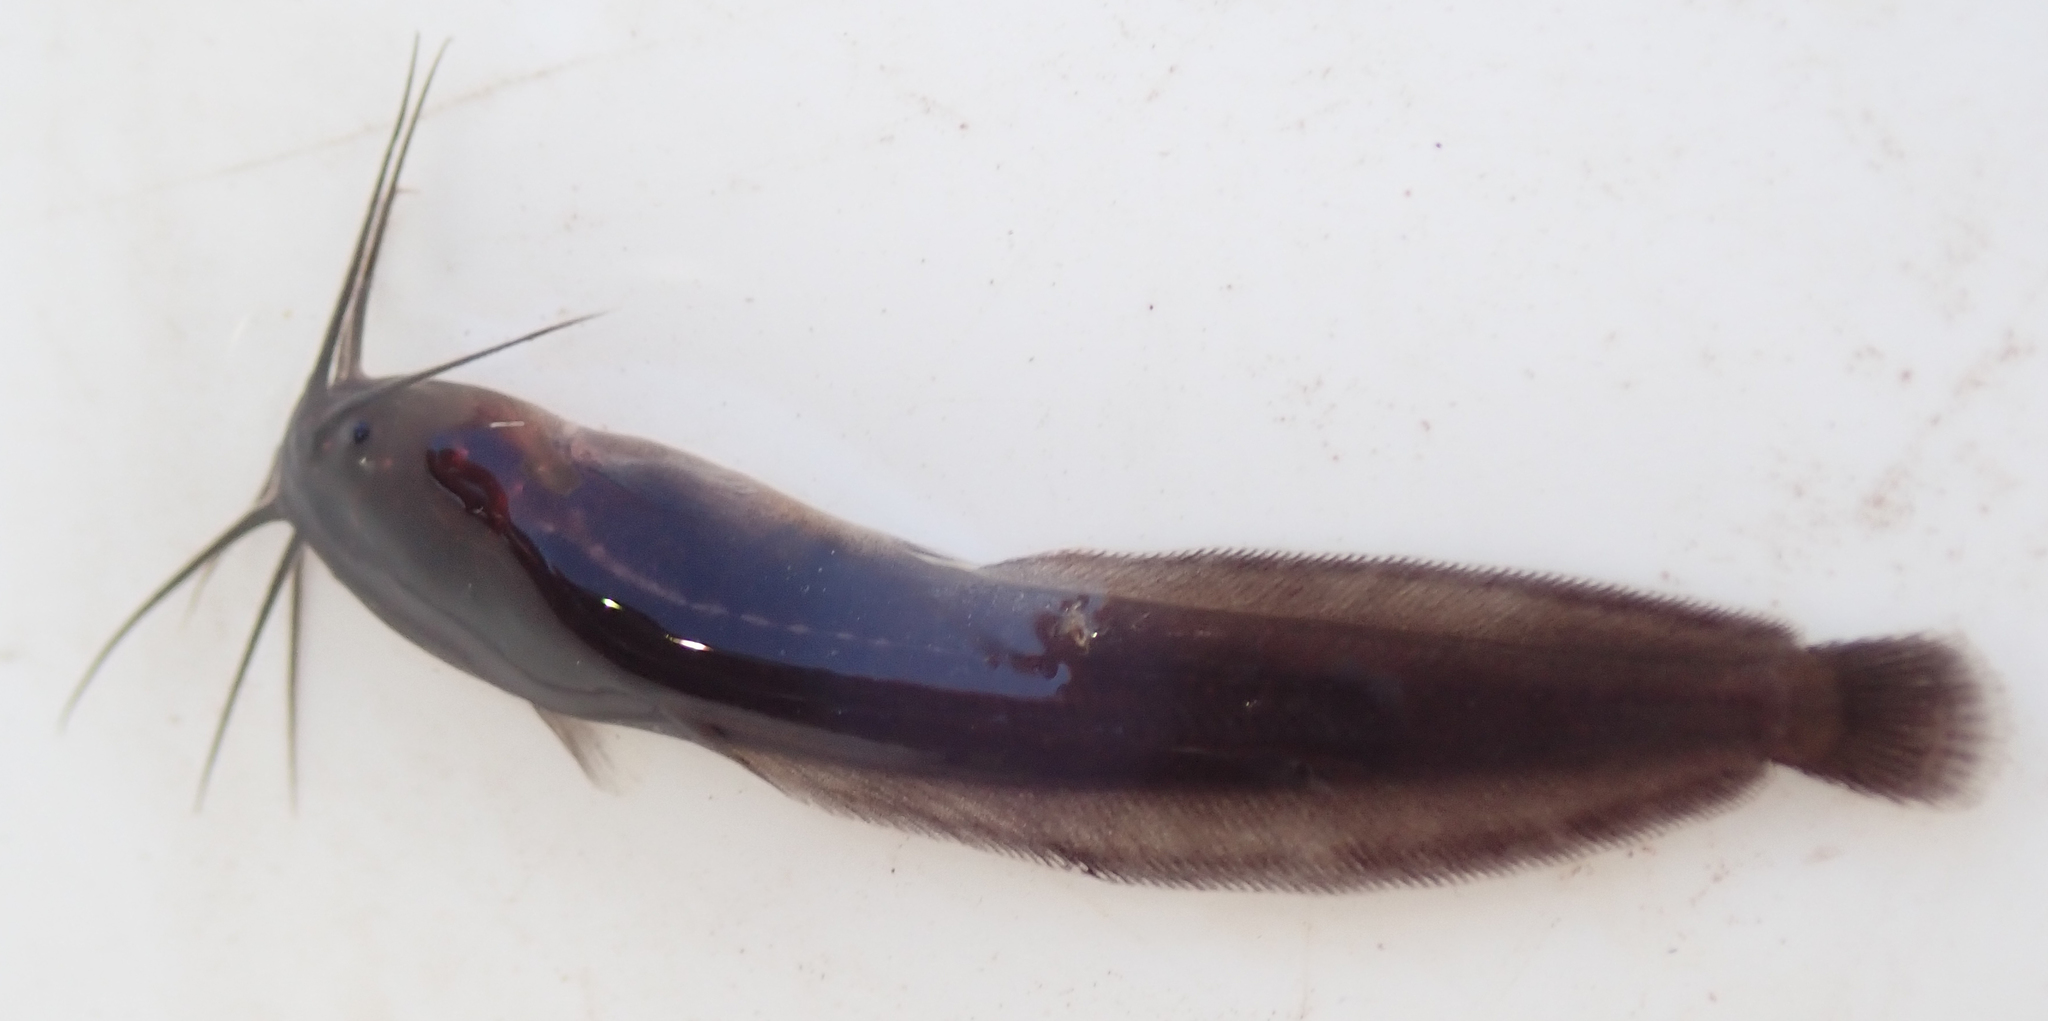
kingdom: Animalia
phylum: Chordata
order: Siluriformes
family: Clariidae
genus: Clarias
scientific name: Clarias theodorae
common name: Snake catfish
